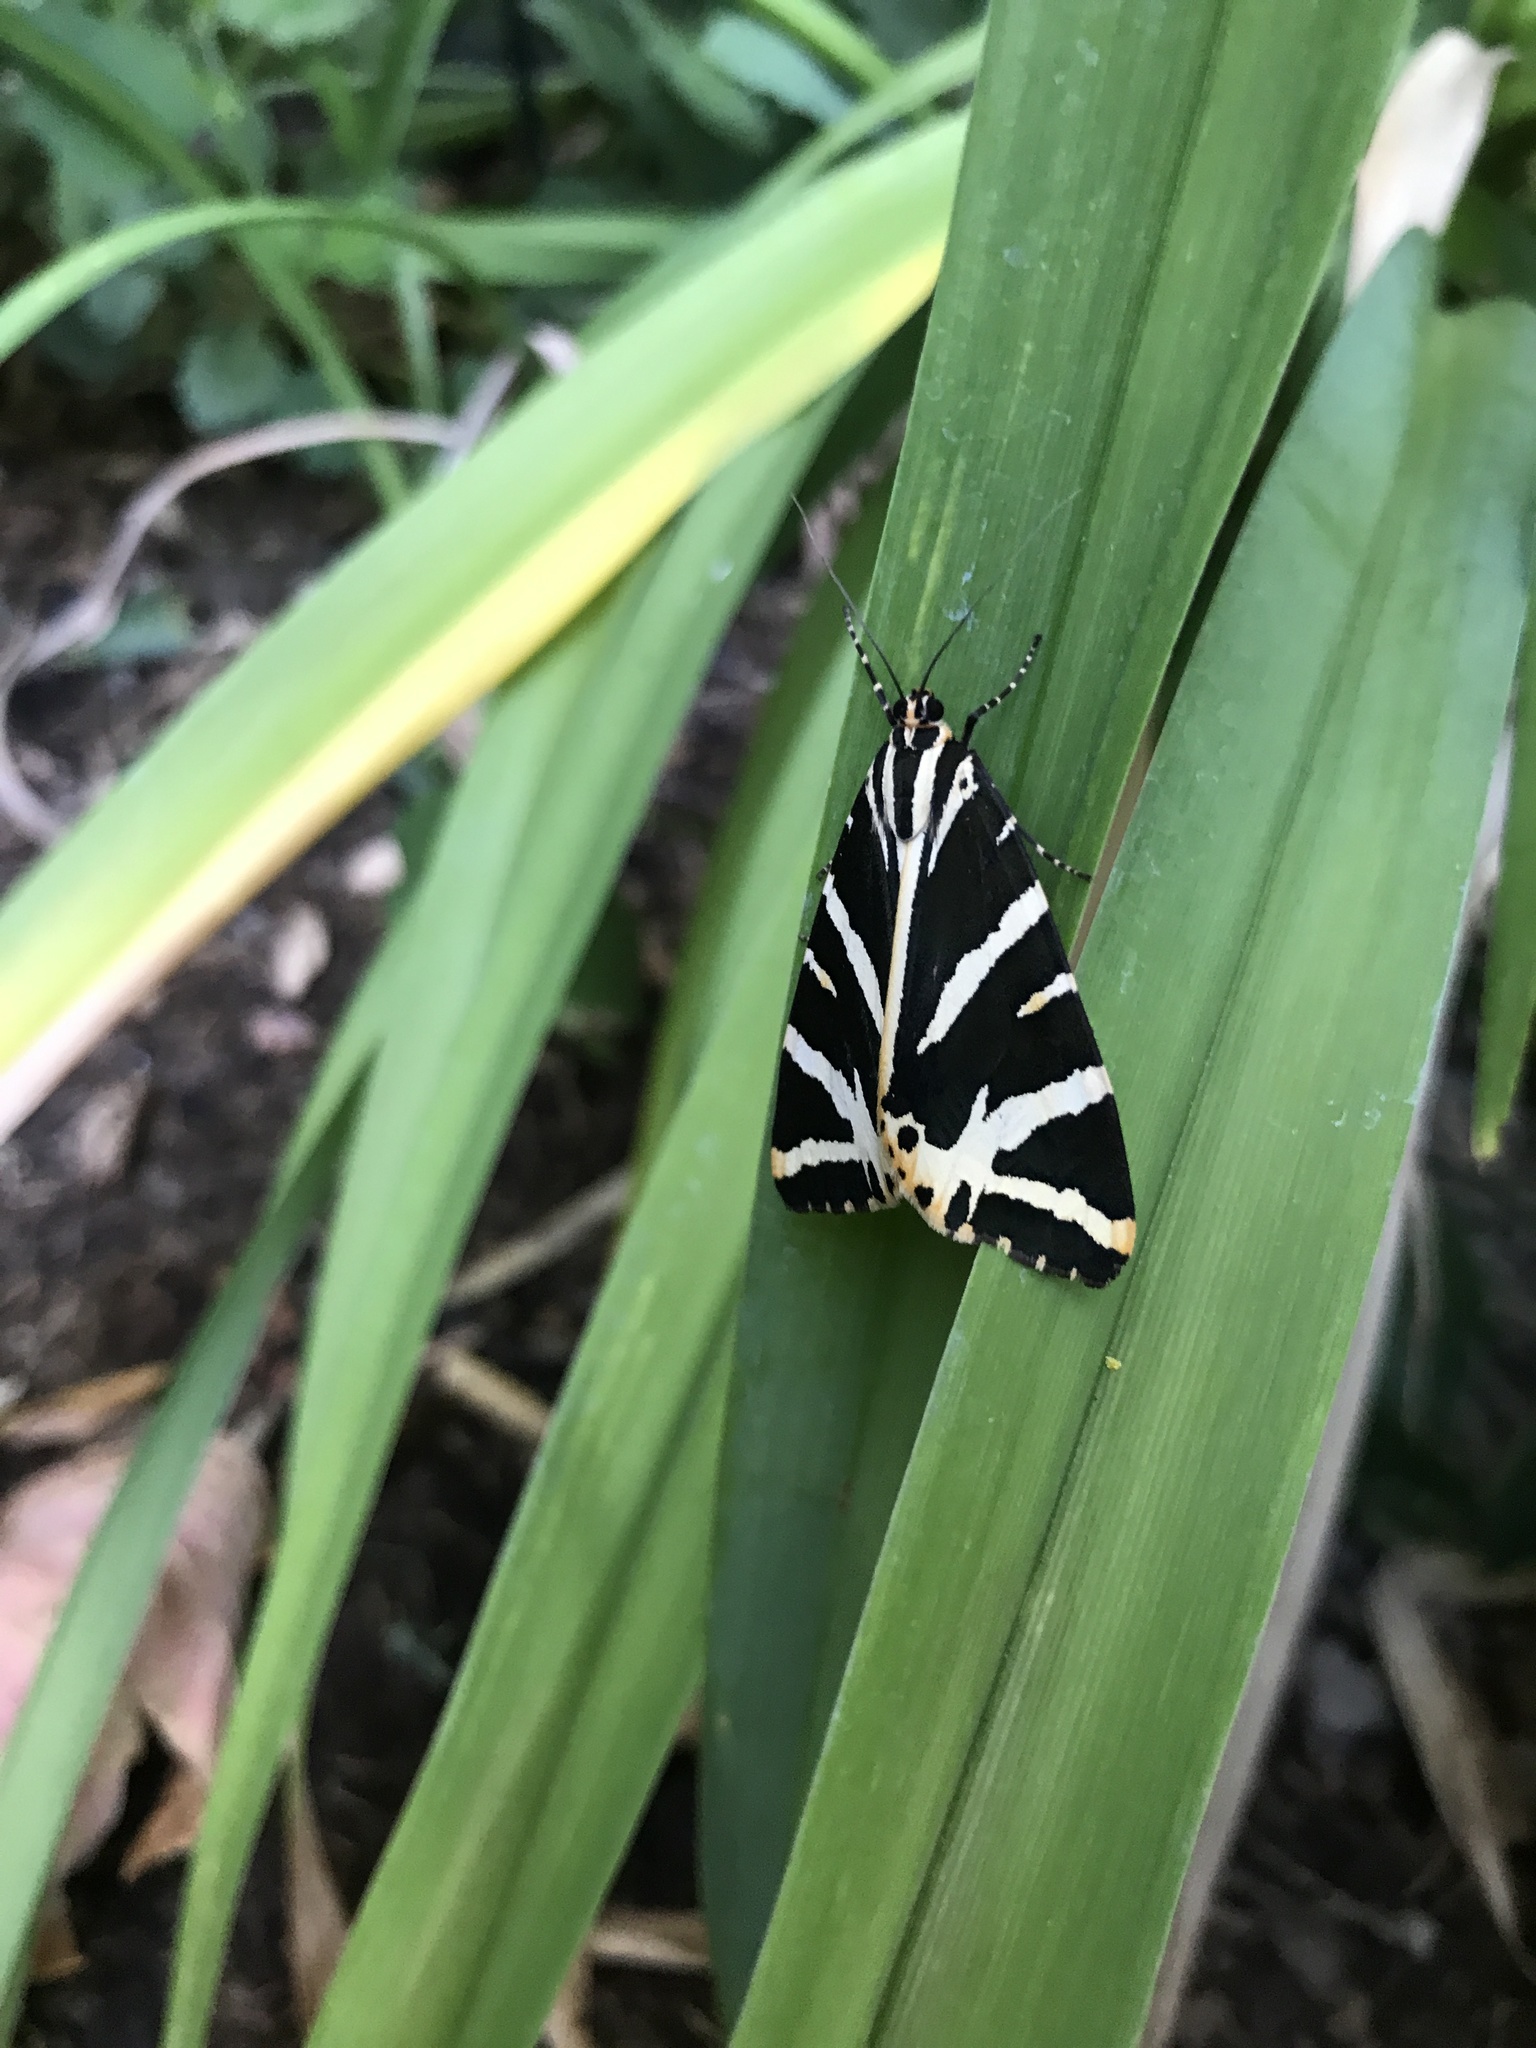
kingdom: Animalia
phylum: Arthropoda
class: Insecta
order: Lepidoptera
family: Erebidae
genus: Euplagia
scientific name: Euplagia quadripunctaria
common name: Jersey tiger
